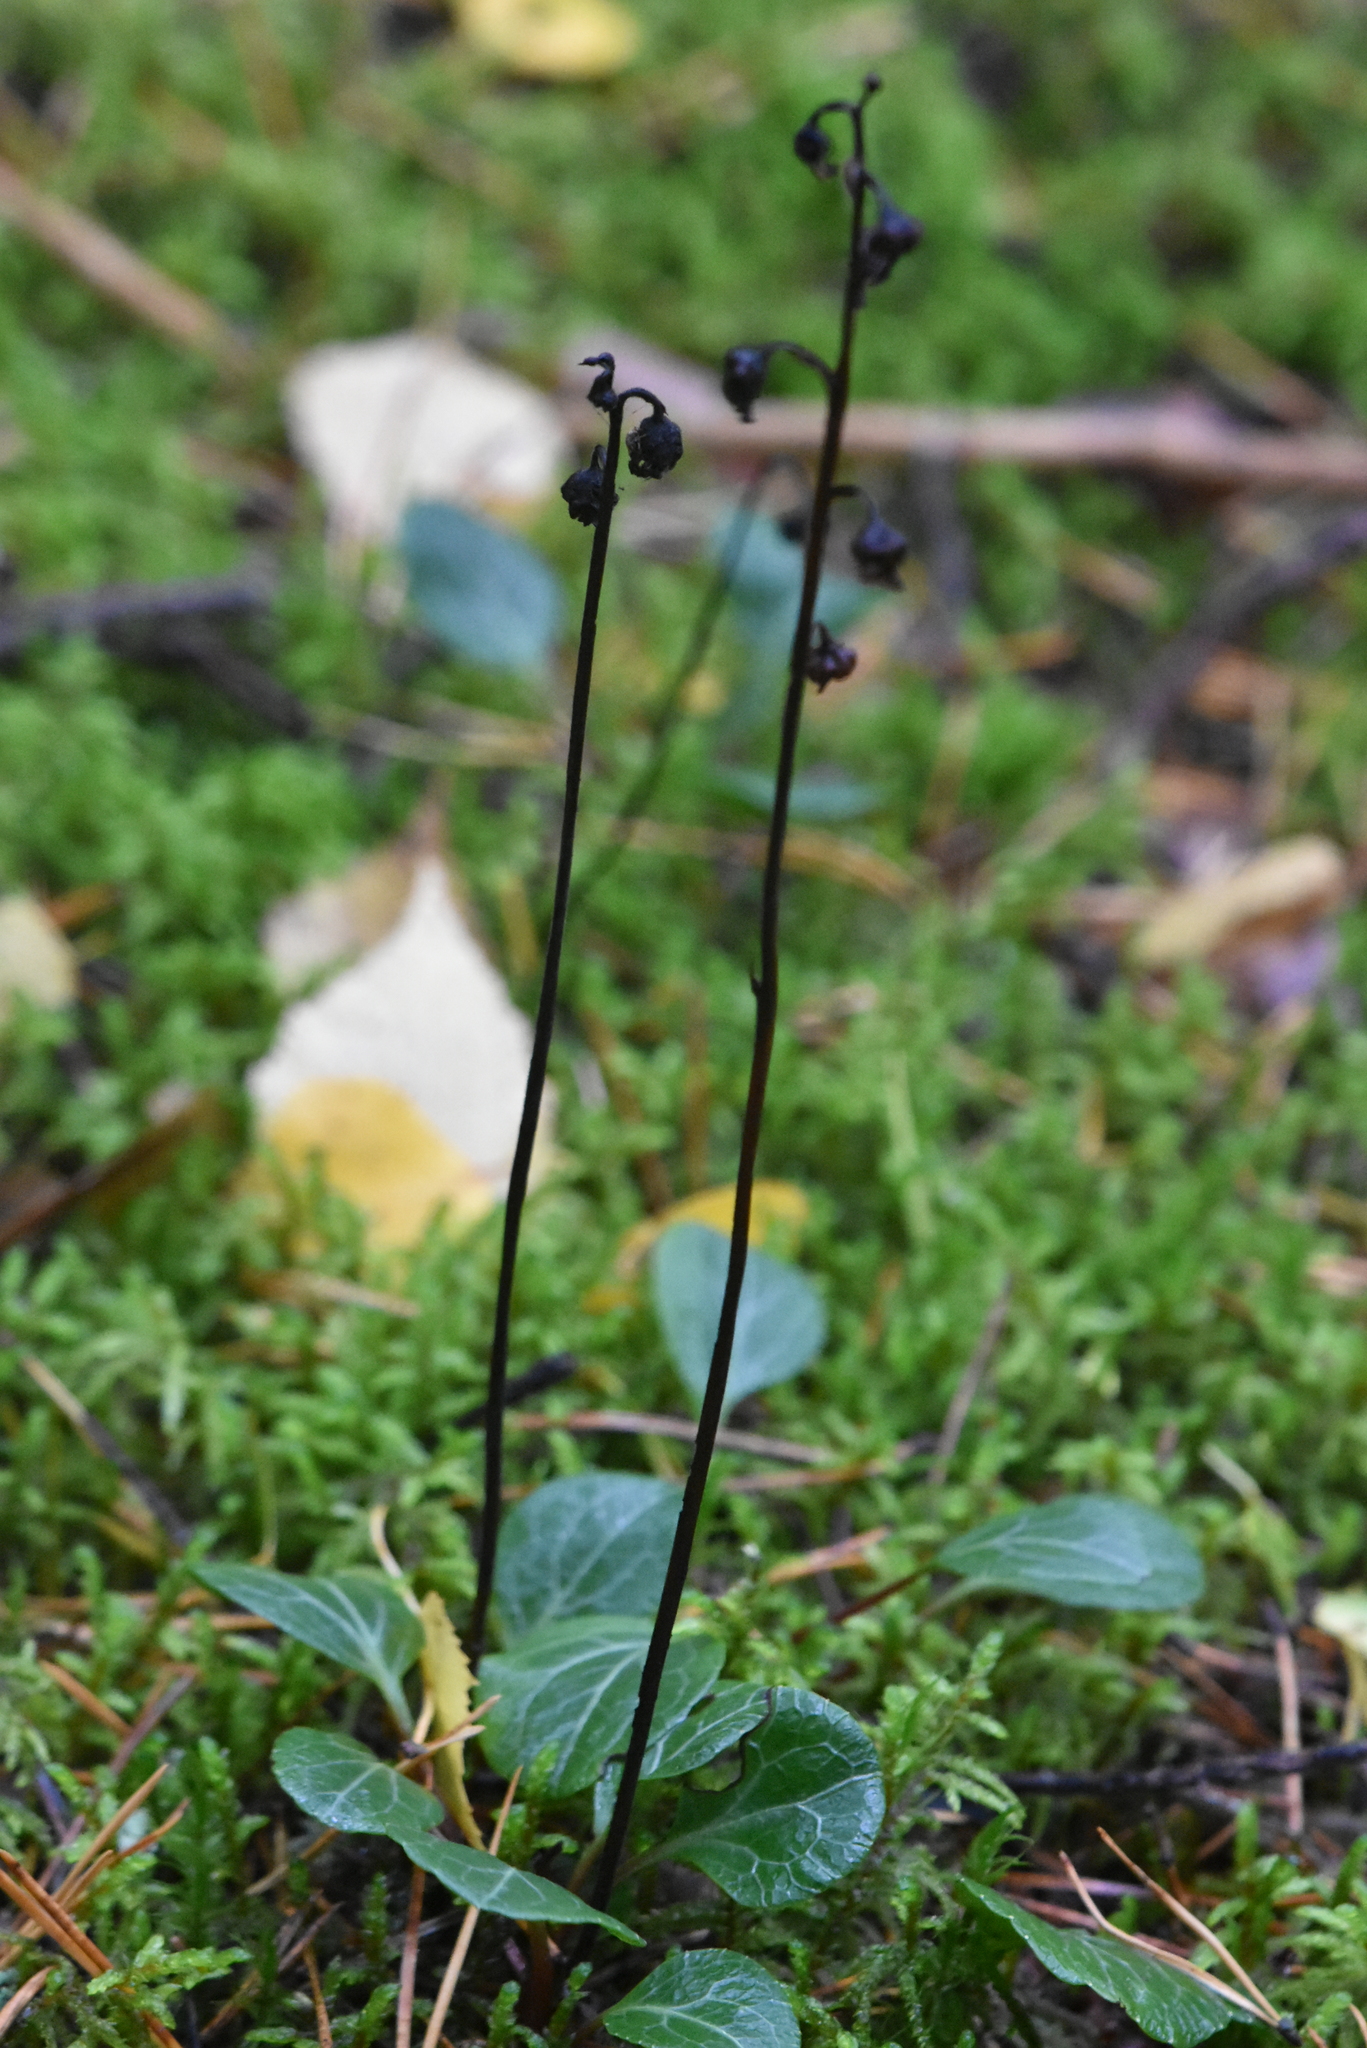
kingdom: Plantae
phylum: Tracheophyta
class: Magnoliopsida
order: Ericales
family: Ericaceae
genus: Pyrola
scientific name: Pyrola chlorantha
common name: Green wintergreen
